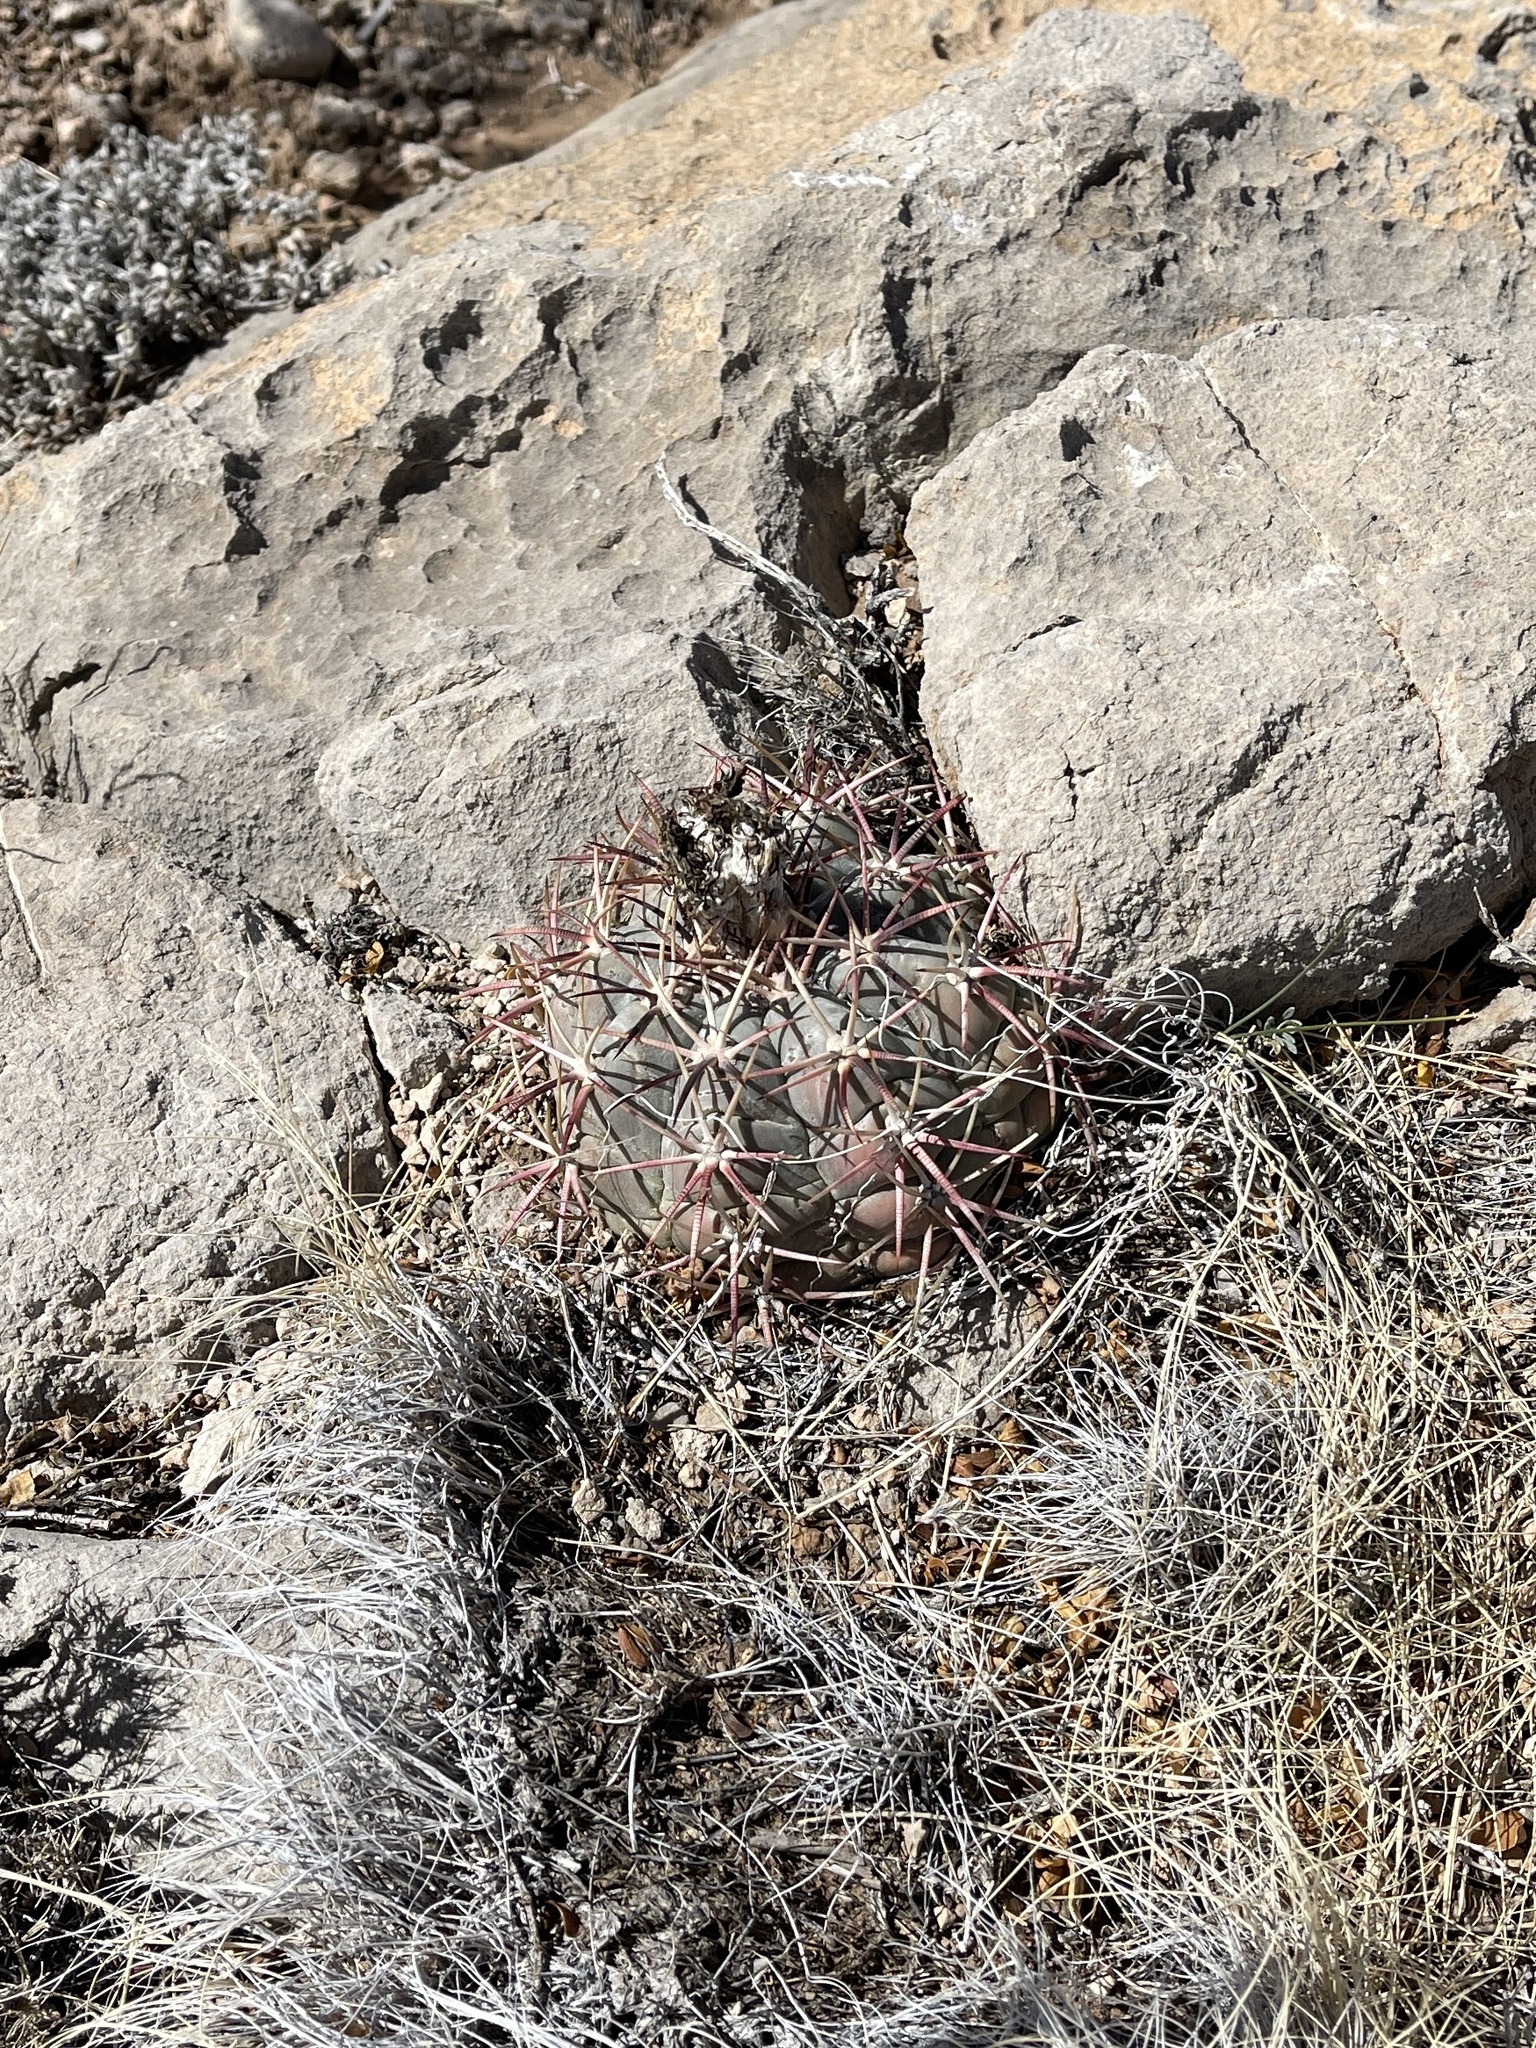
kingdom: Plantae
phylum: Tracheophyta
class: Magnoliopsida
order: Caryophyllales
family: Cactaceae
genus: Echinocactus
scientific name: Echinocactus horizonthalonius
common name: Devilshead
